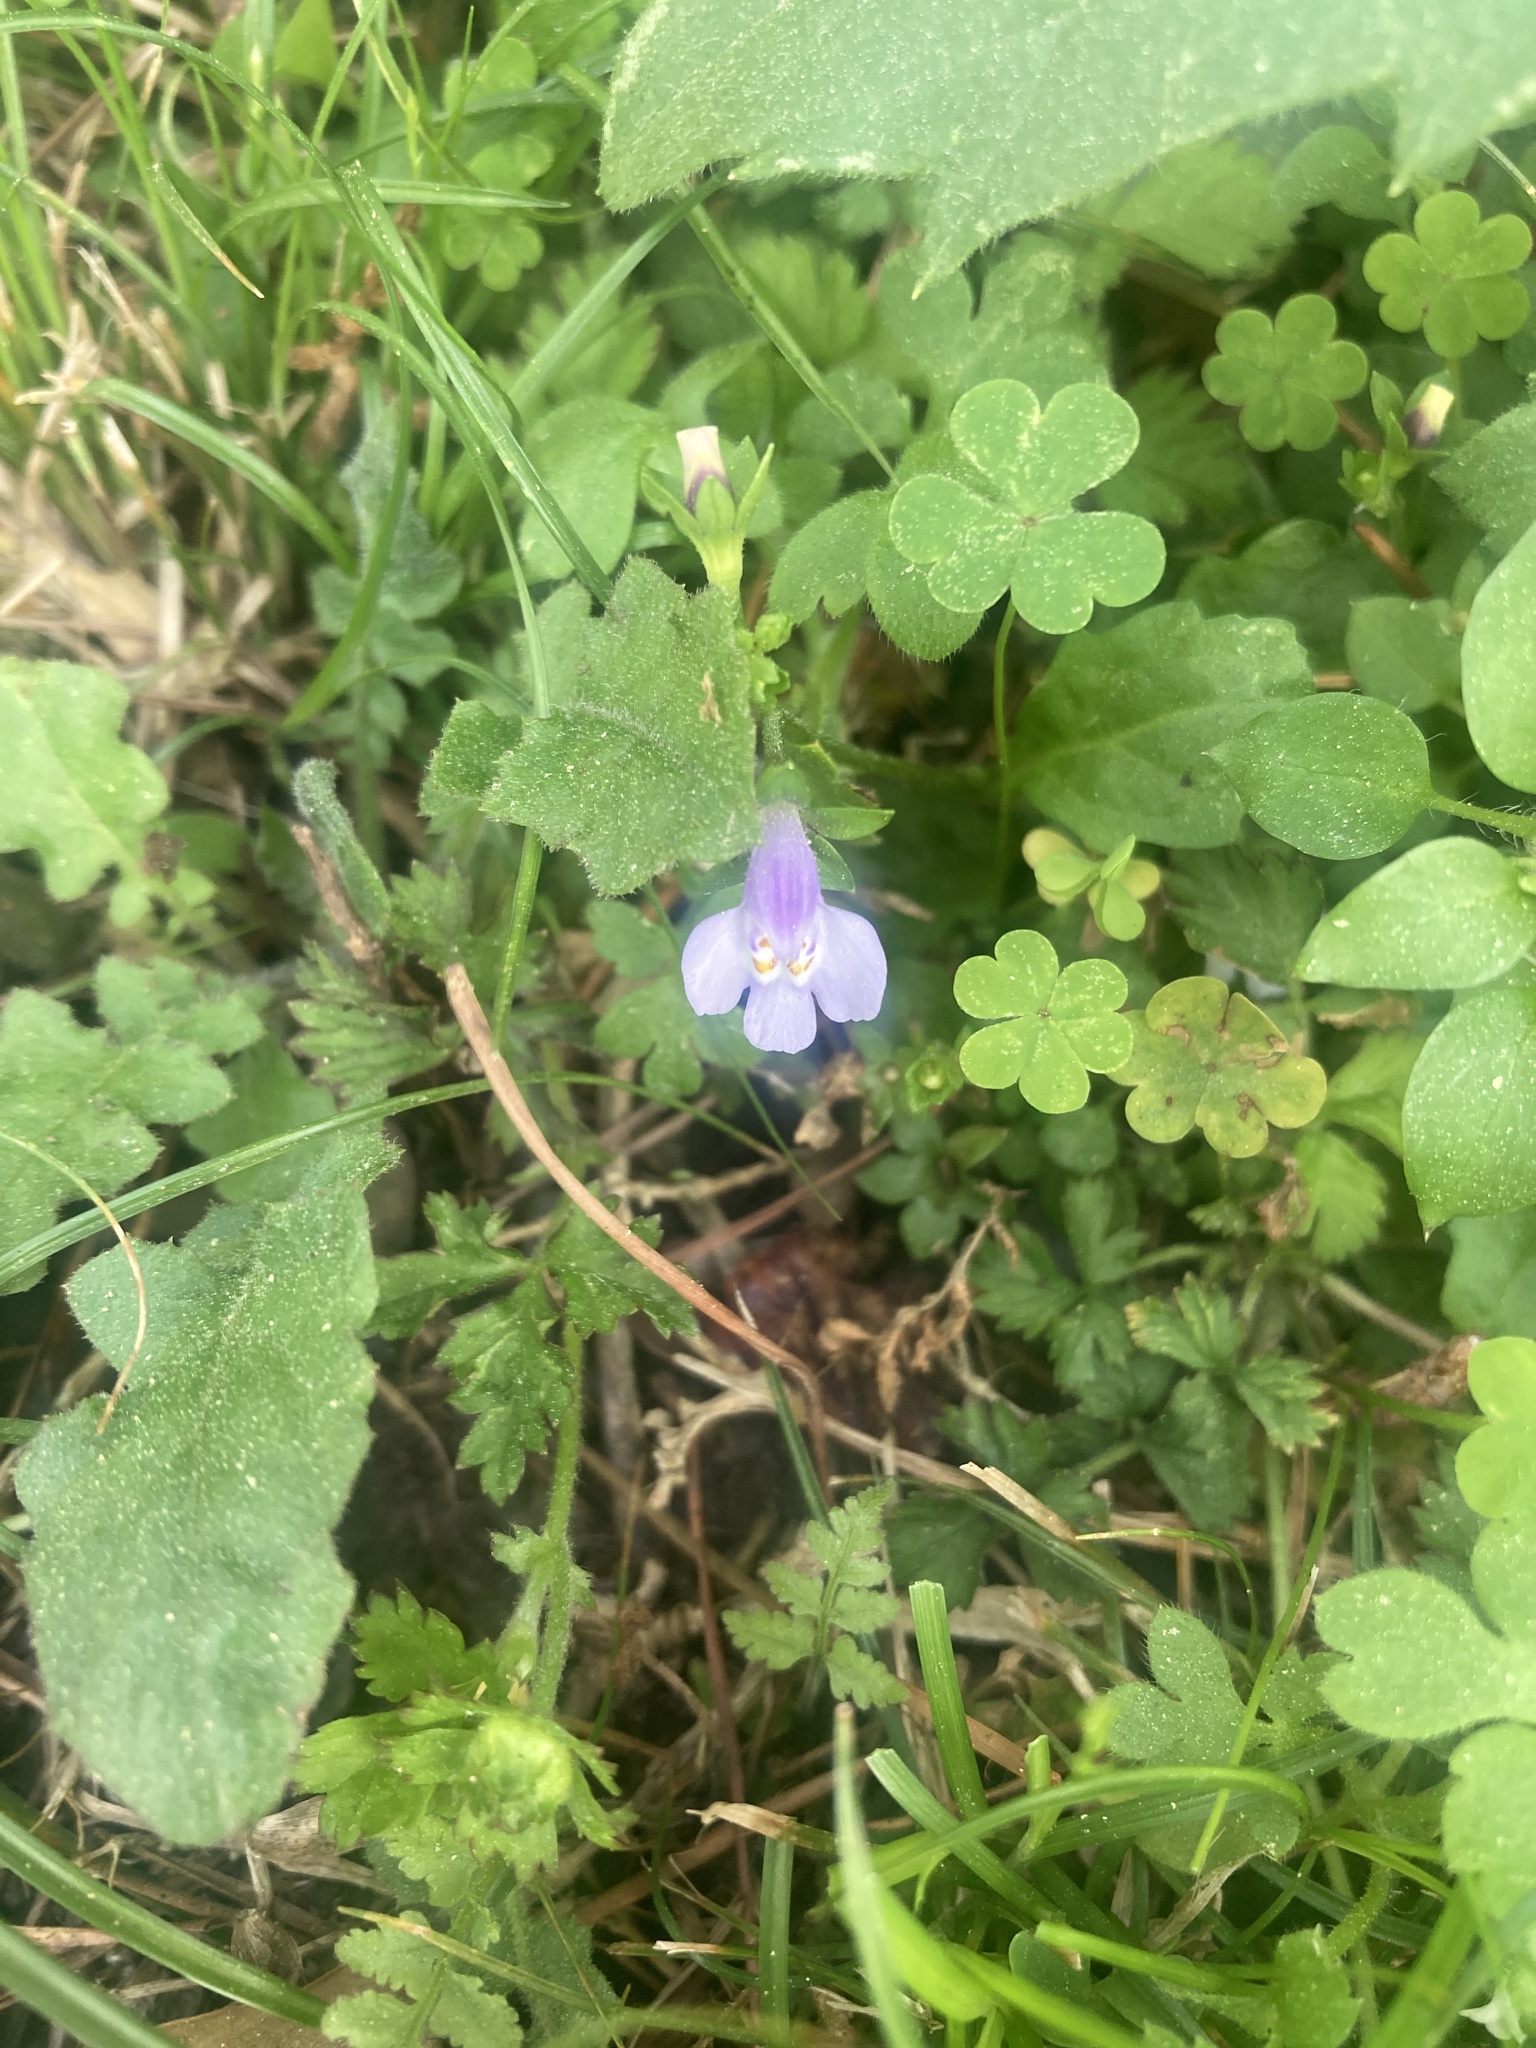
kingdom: Plantae
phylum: Tracheophyta
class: Magnoliopsida
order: Lamiales
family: Mazaceae
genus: Mazus
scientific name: Mazus pumilus
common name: Japanese mazus
